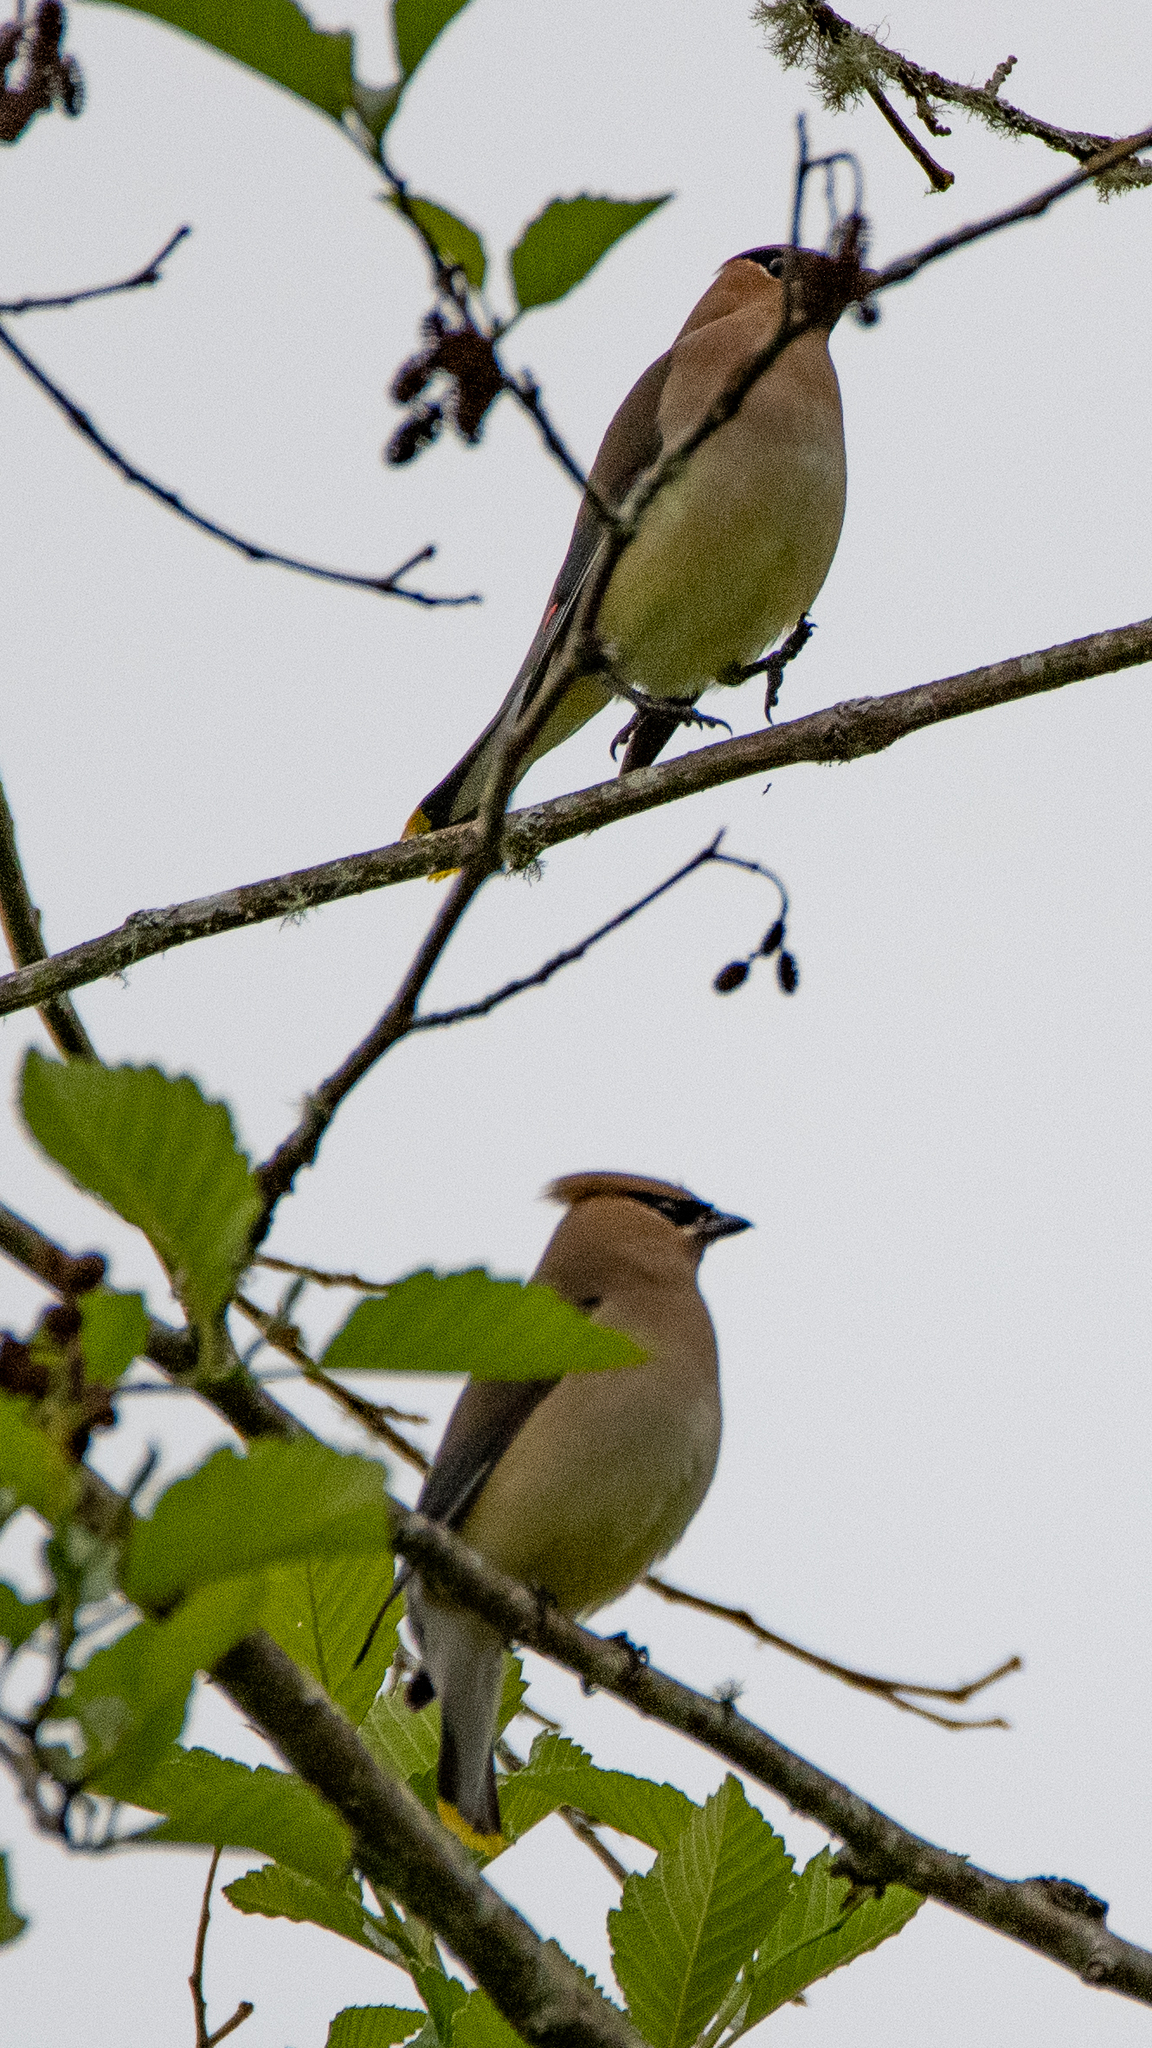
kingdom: Animalia
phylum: Chordata
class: Aves
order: Passeriformes
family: Bombycillidae
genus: Bombycilla
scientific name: Bombycilla cedrorum
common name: Cedar waxwing
